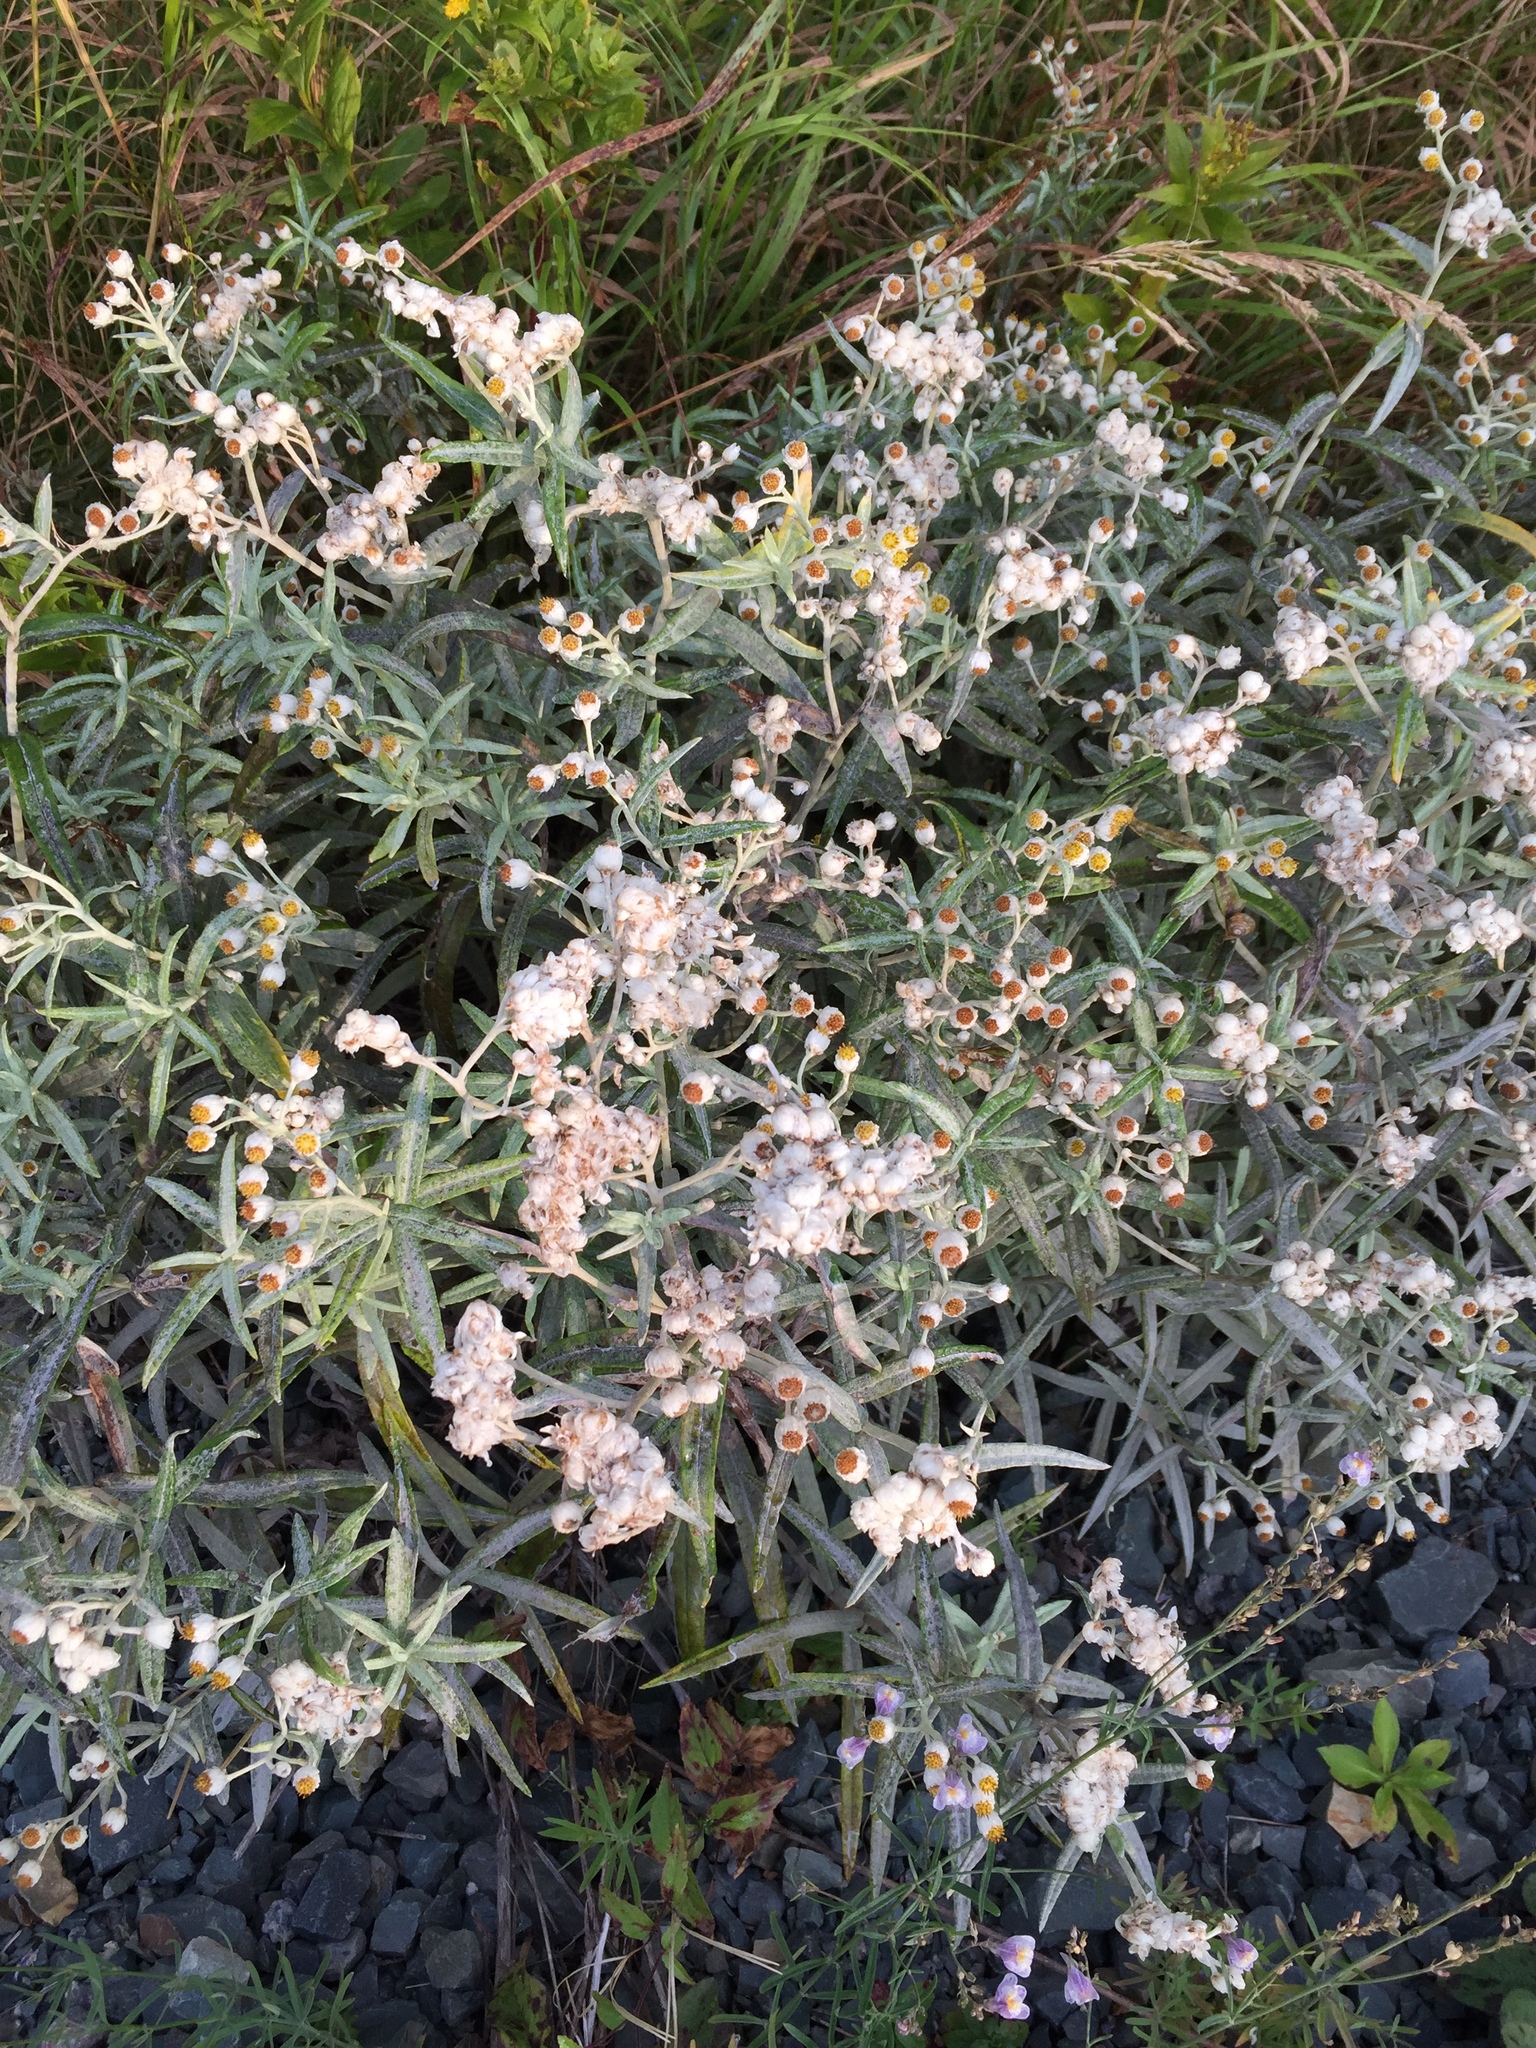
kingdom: Plantae
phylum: Tracheophyta
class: Magnoliopsida
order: Asterales
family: Asteraceae
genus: Anaphalis
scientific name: Anaphalis margaritacea
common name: Pearly everlasting
